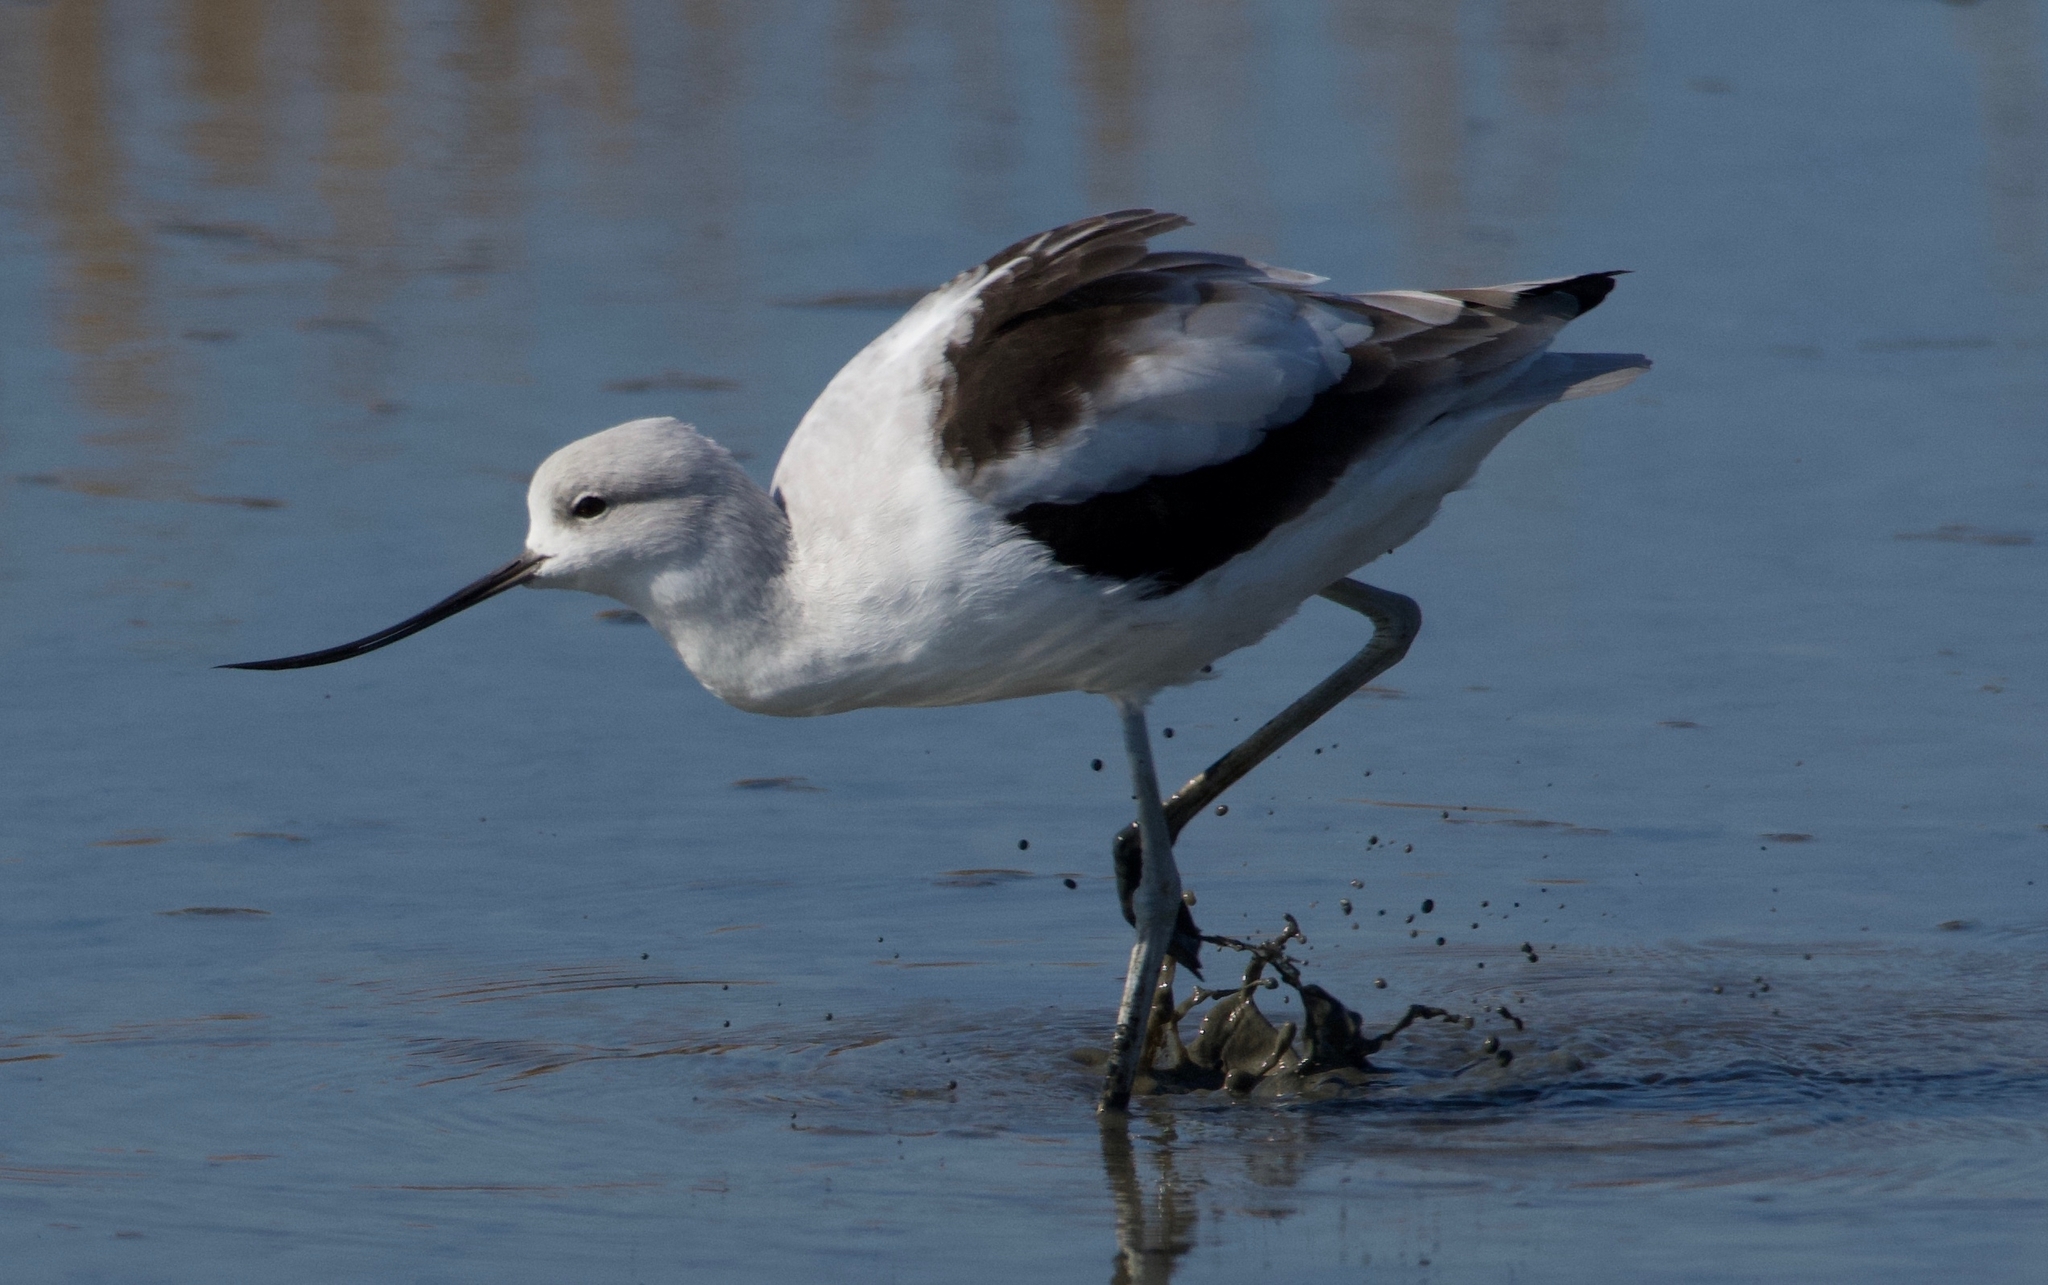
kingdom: Animalia
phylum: Chordata
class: Aves
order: Charadriiformes
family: Recurvirostridae
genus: Recurvirostra
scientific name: Recurvirostra americana
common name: American avocet
